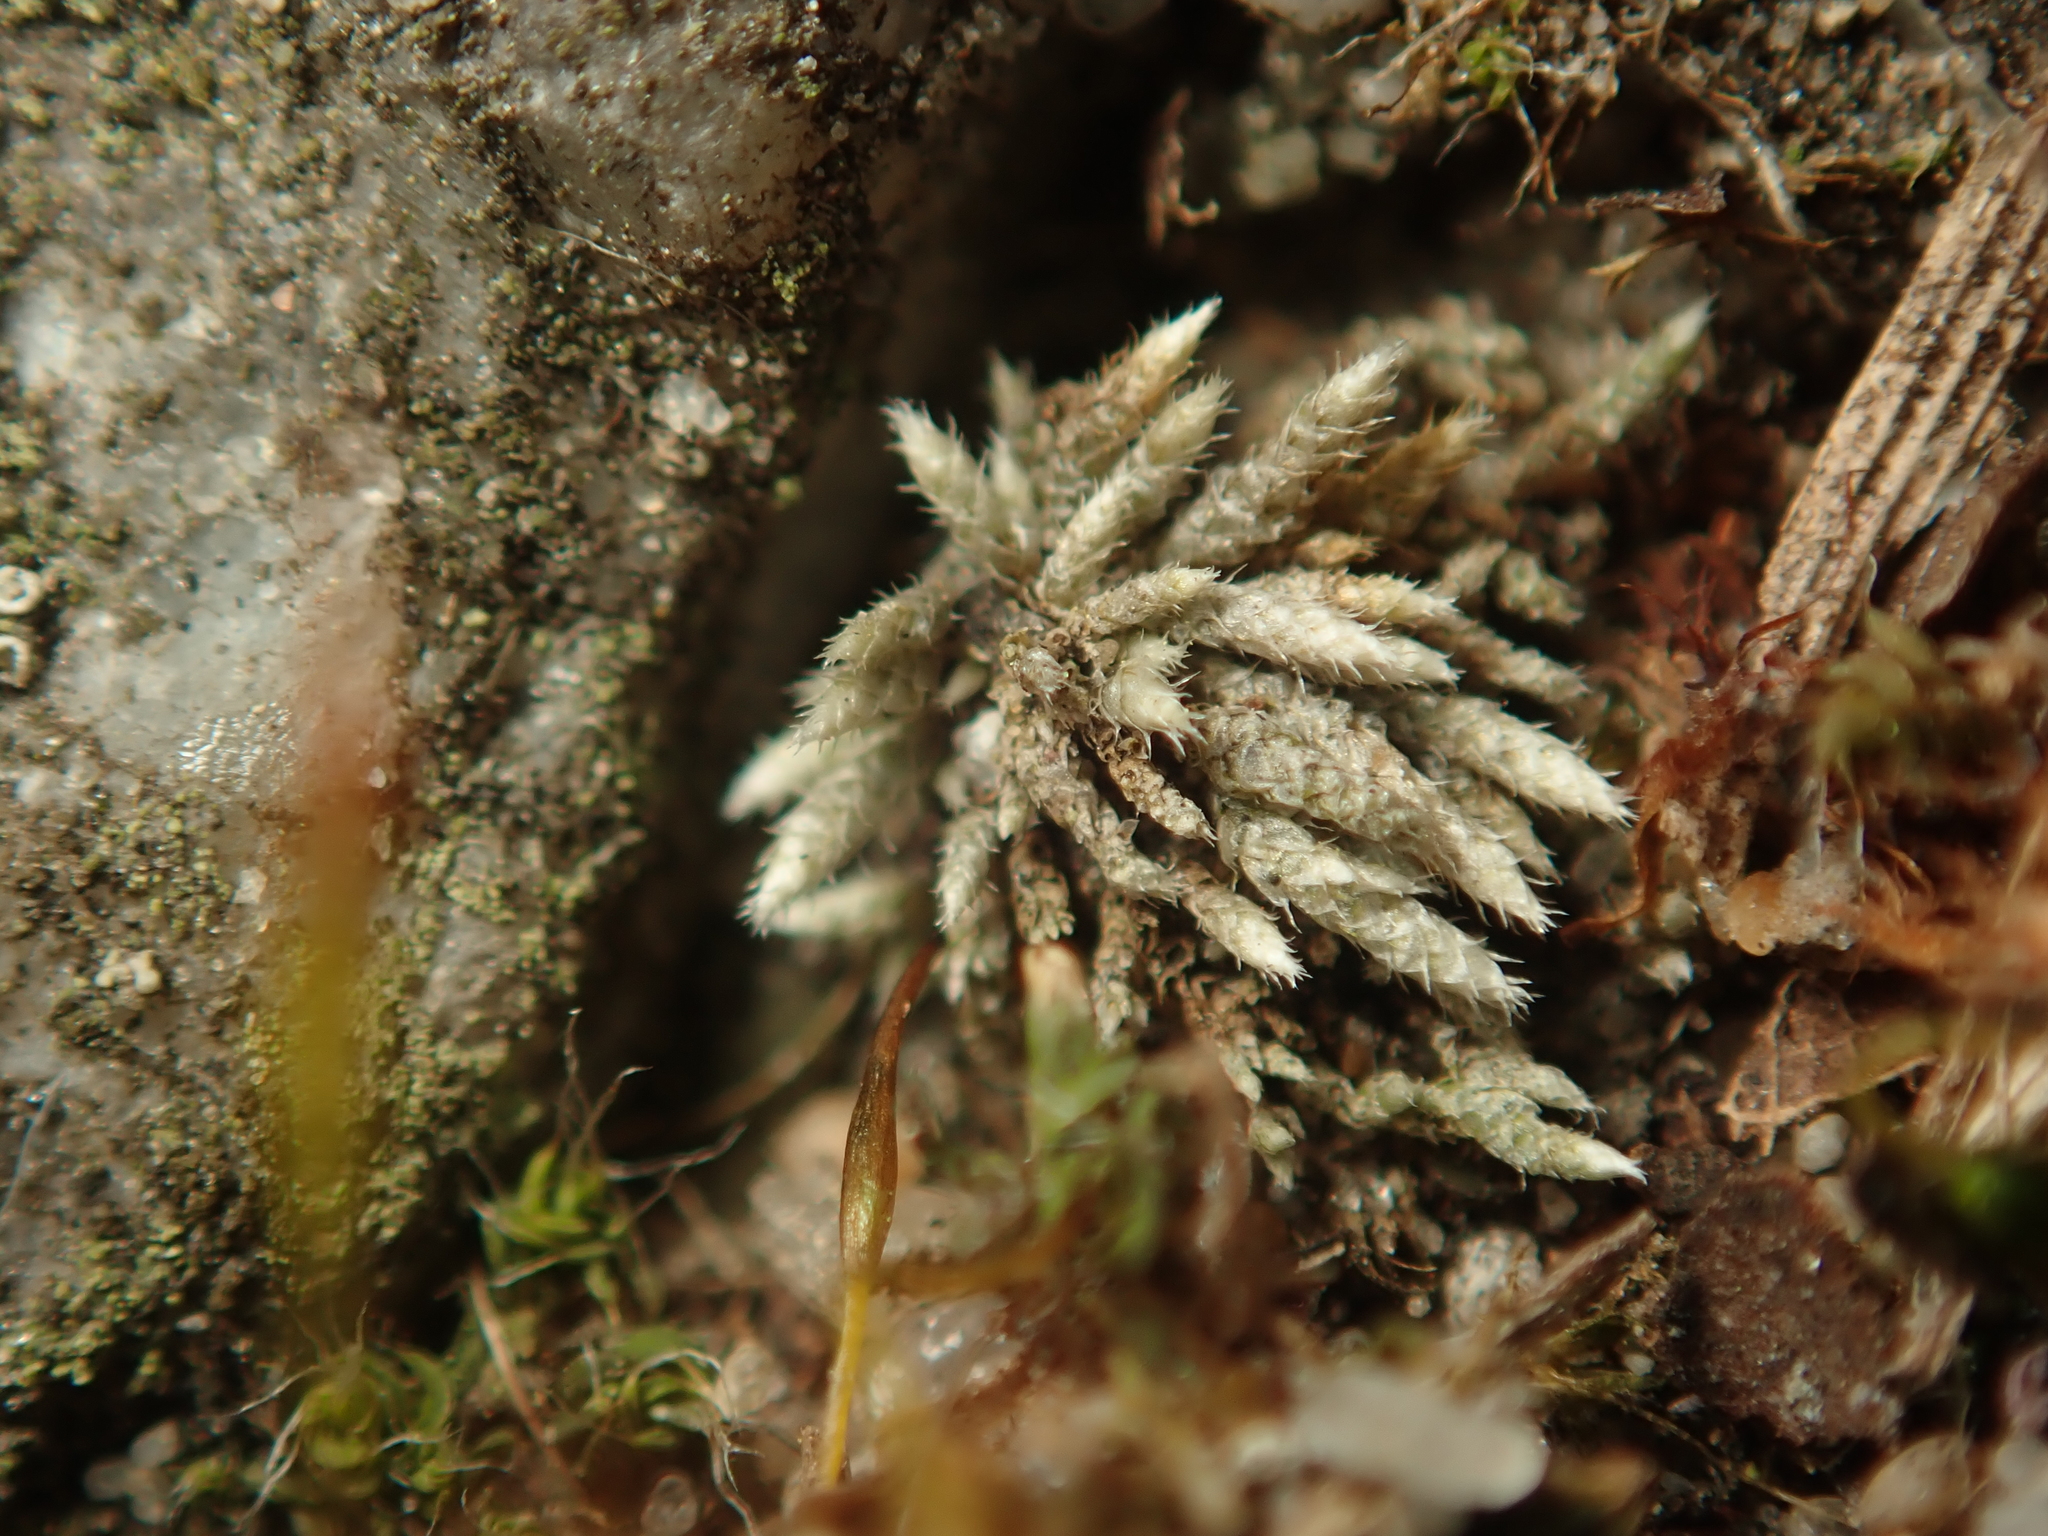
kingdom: Plantae
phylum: Bryophyta
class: Bryopsida
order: Bryales
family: Bryaceae
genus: Bryum
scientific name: Bryum argenteum
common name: Silver-moss
